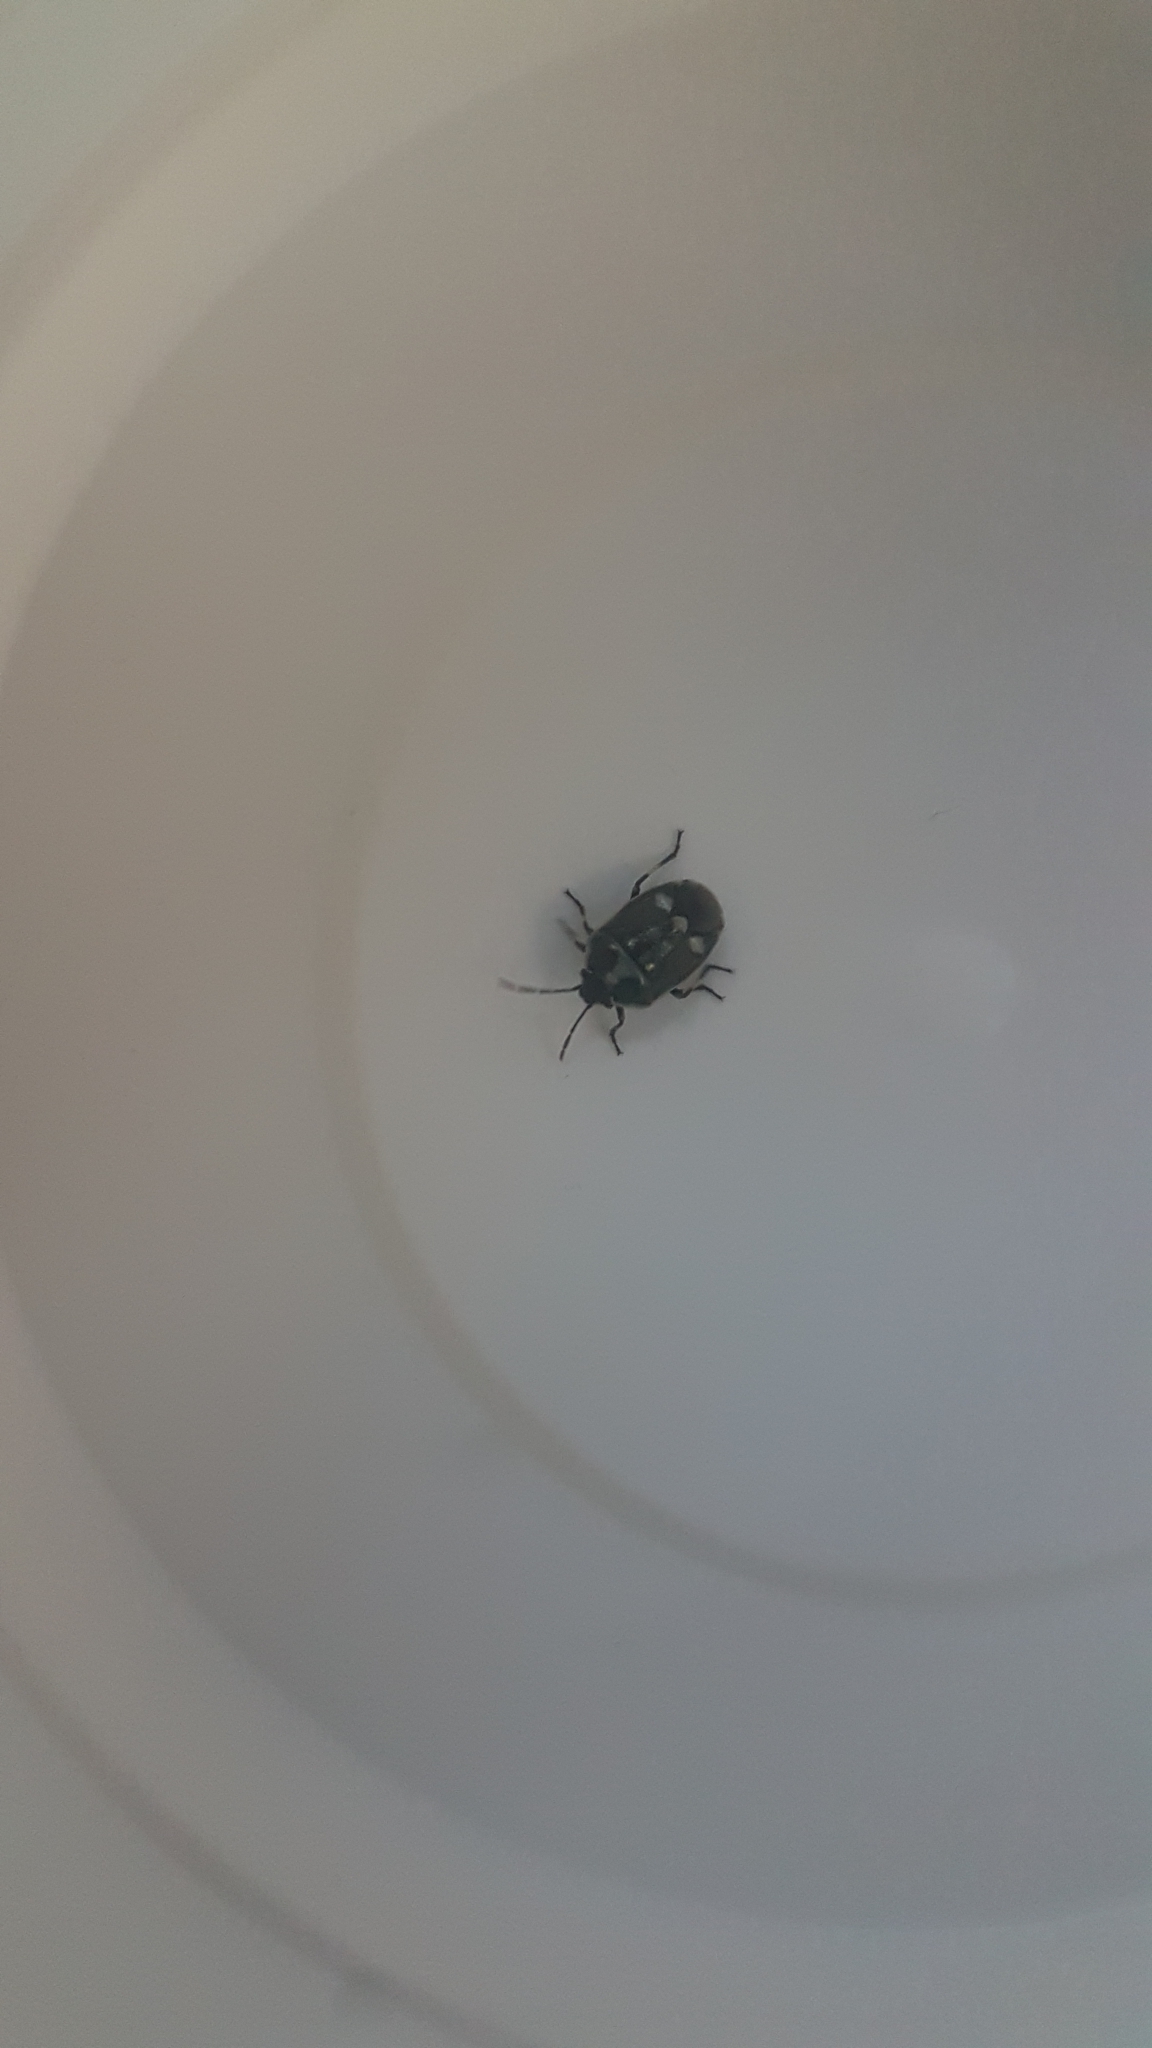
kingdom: Animalia
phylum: Arthropoda
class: Insecta
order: Hemiptera
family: Pentatomidae
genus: Eurydema
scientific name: Eurydema oleracea
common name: Cabbage bug
